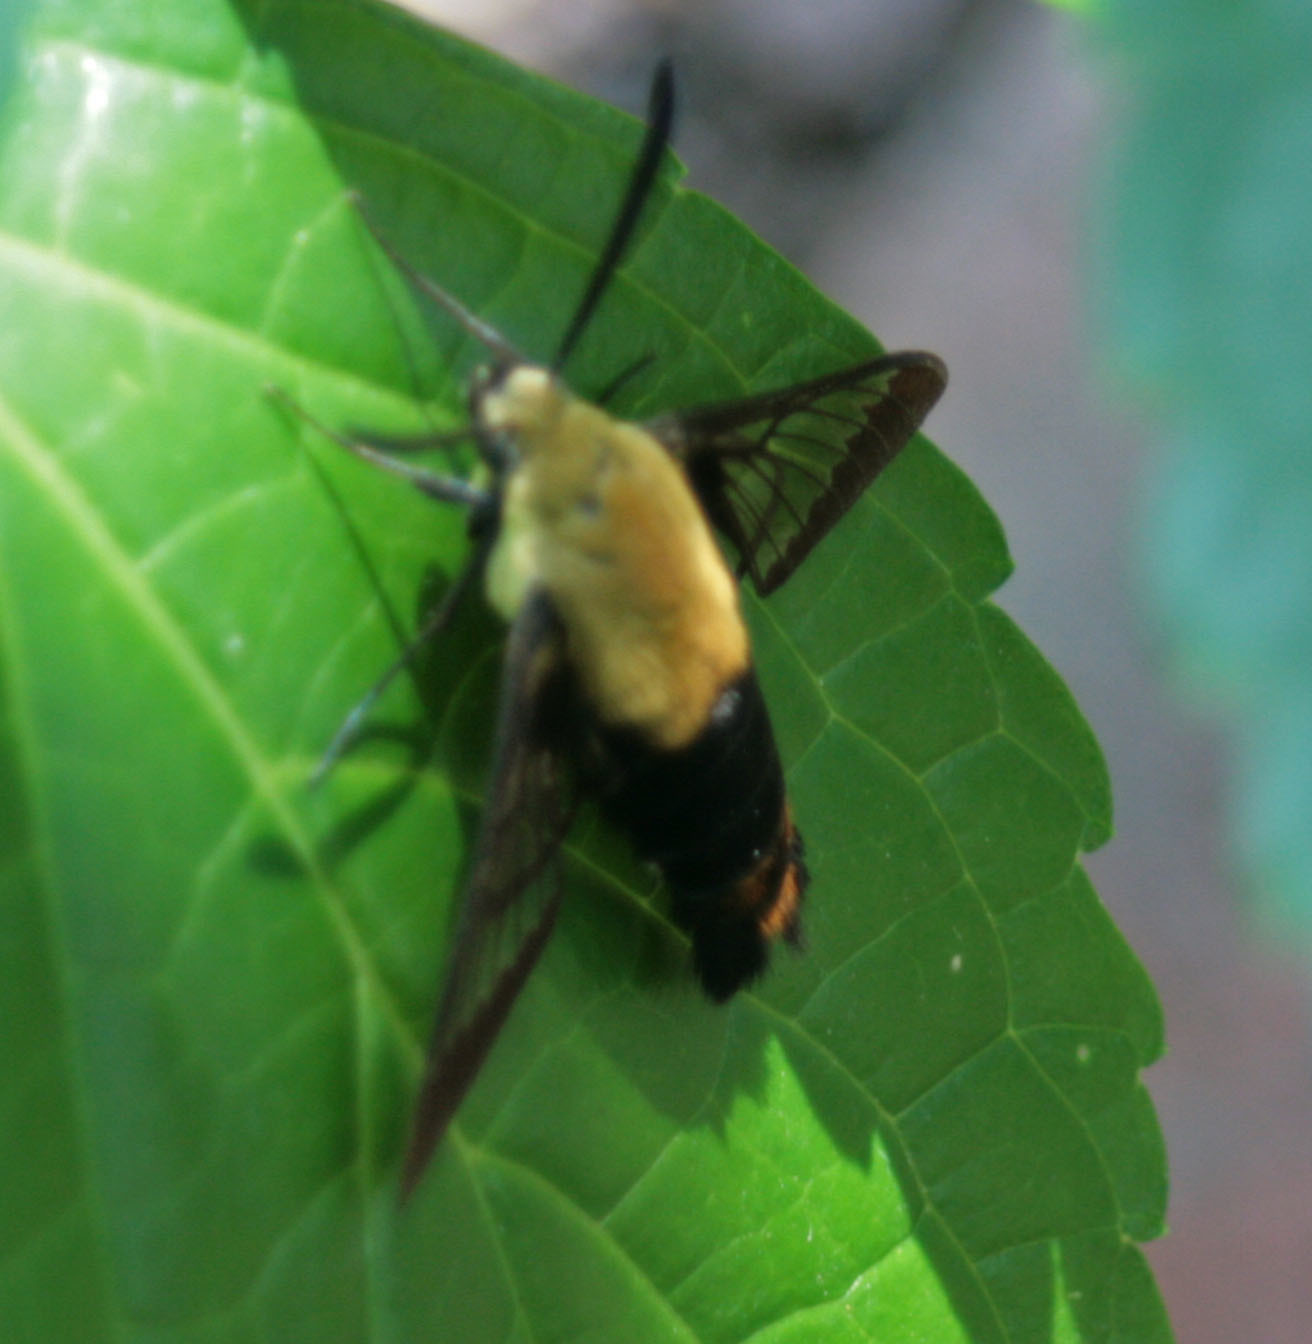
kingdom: Animalia
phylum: Arthropoda
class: Insecta
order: Lepidoptera
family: Sphingidae
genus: Hemaris
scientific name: Hemaris diffinis
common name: Bumblebee moth
